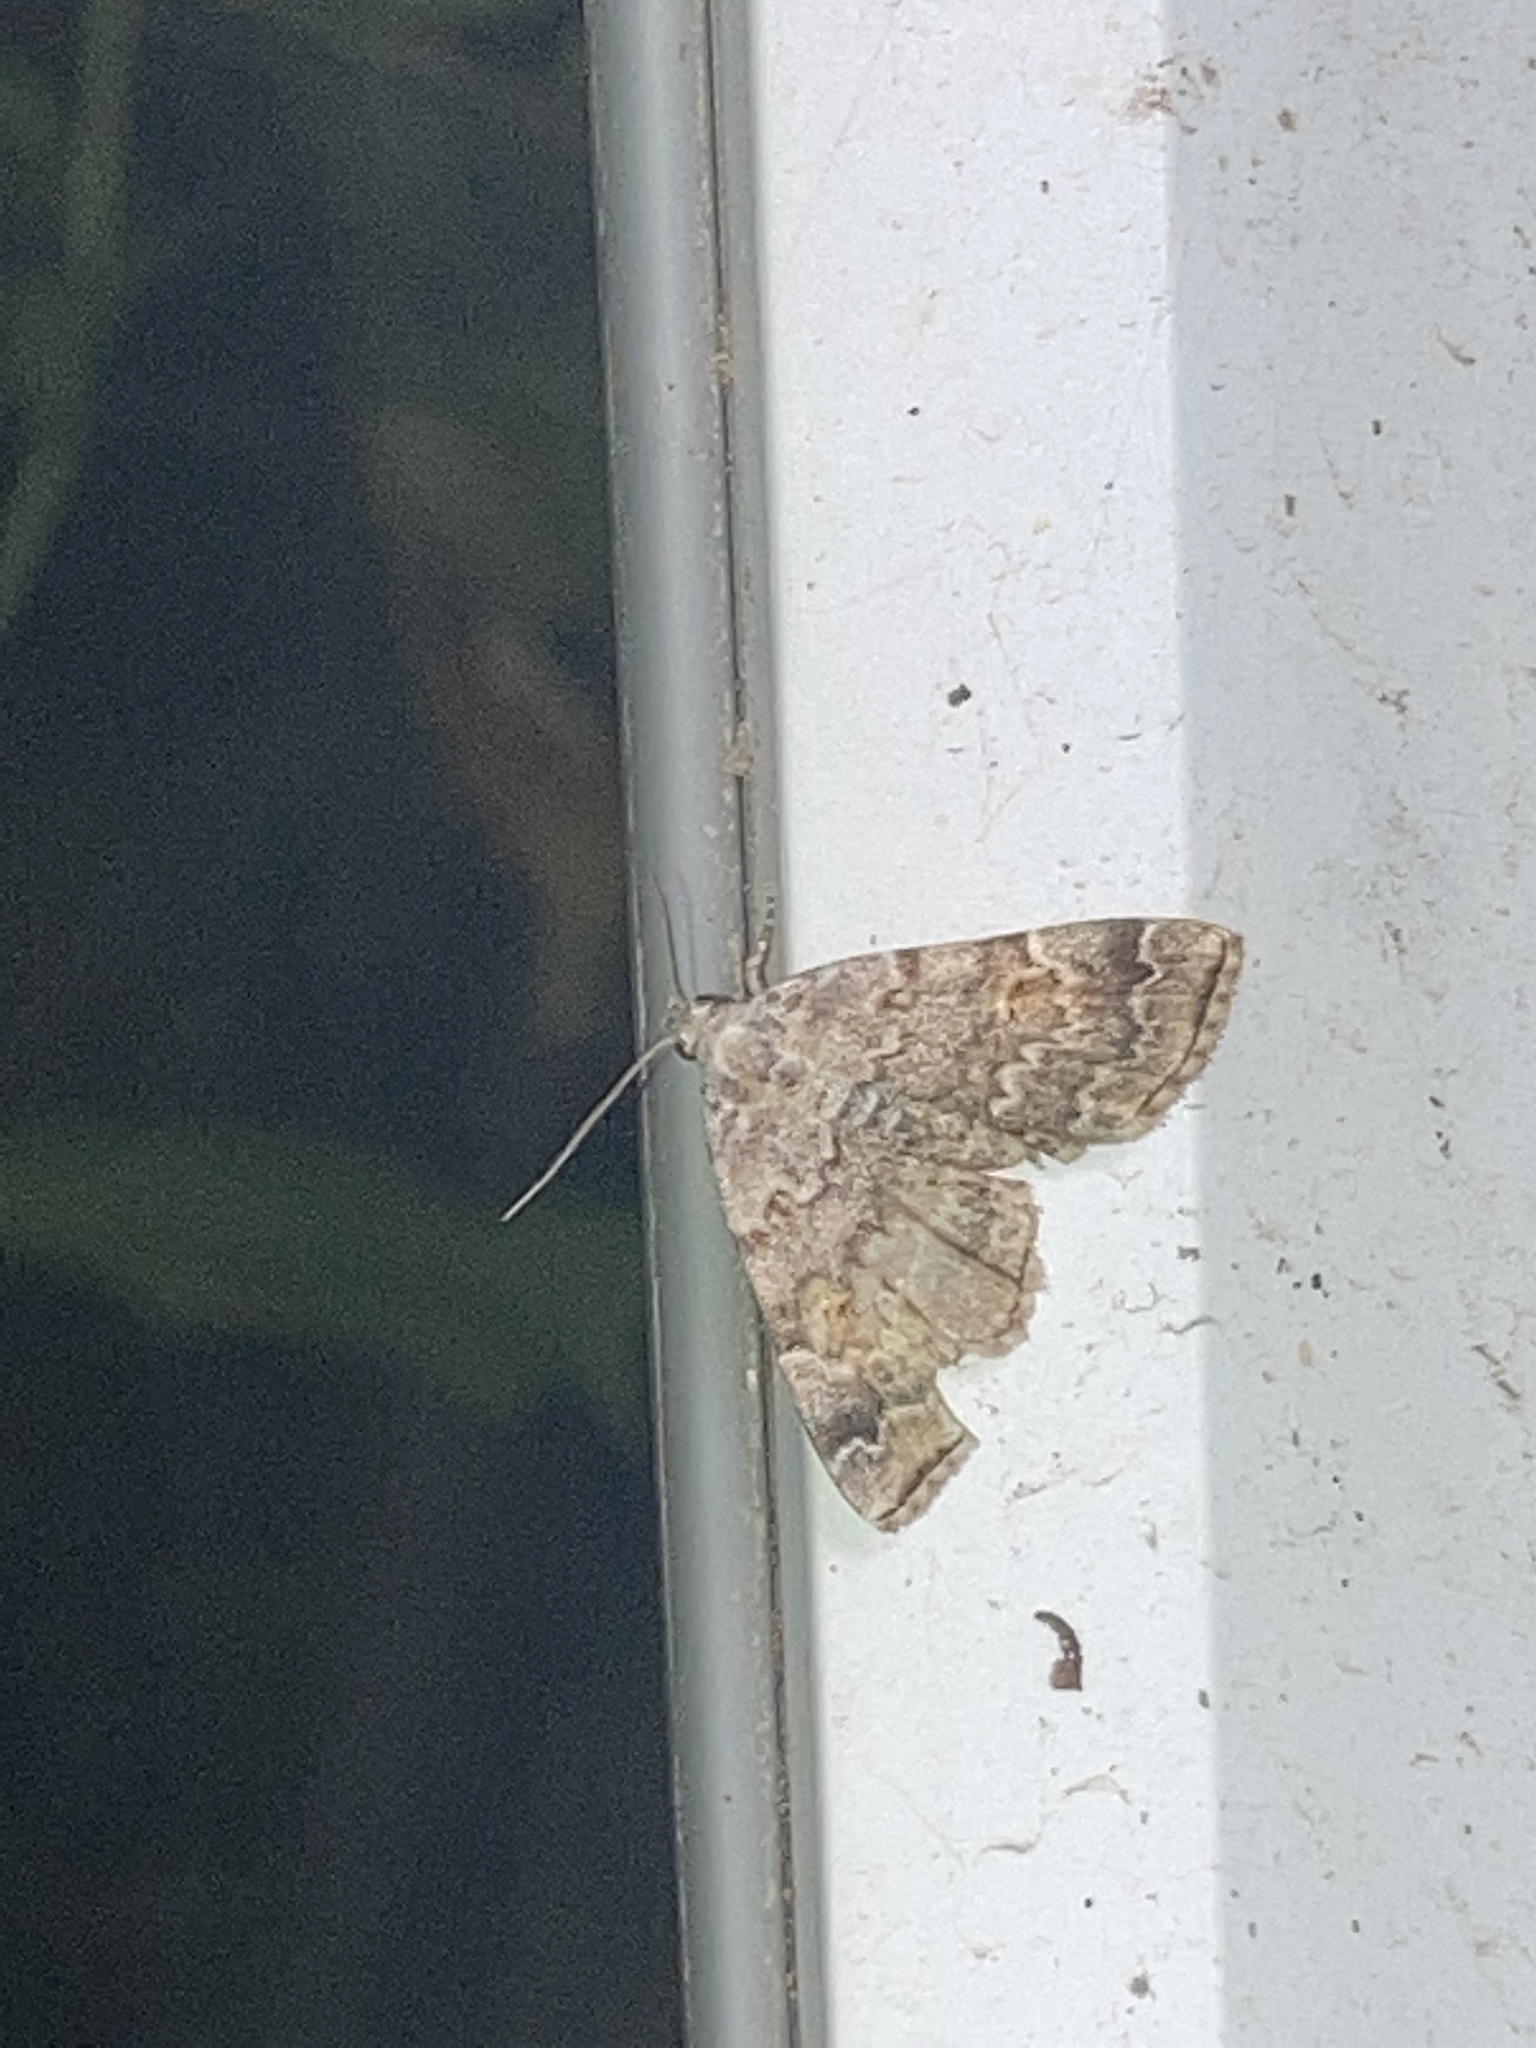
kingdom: Animalia
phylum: Arthropoda
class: Insecta
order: Lepidoptera
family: Erebidae
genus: Idia
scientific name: Idia americalis
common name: American idia moth
